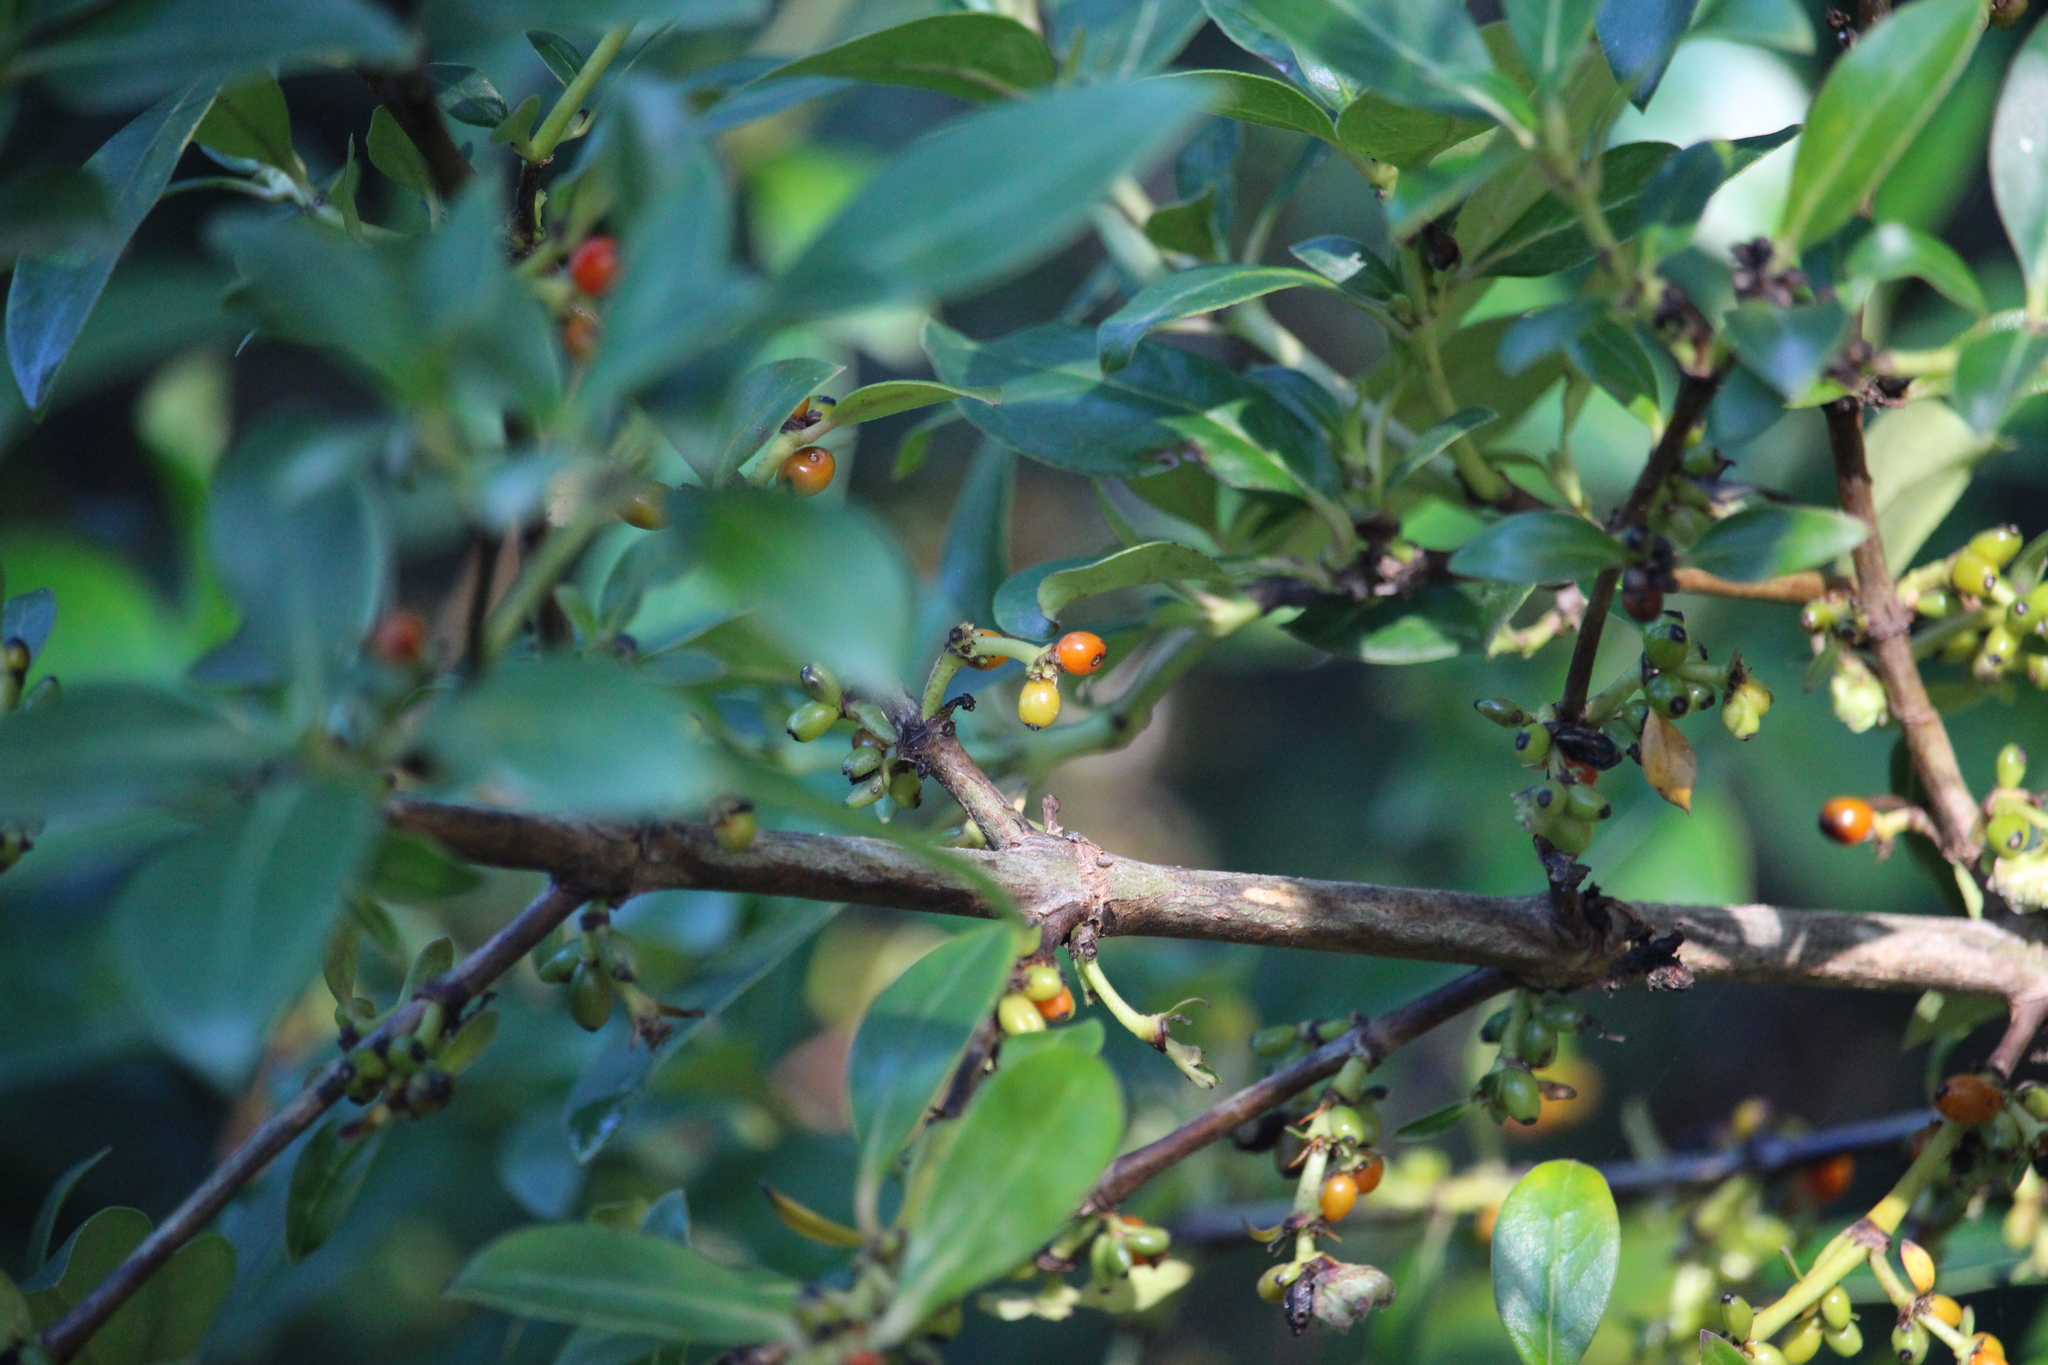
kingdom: Plantae
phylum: Tracheophyta
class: Magnoliopsida
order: Gentianales
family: Rubiaceae
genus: Coprosma
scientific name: Coprosma robusta
